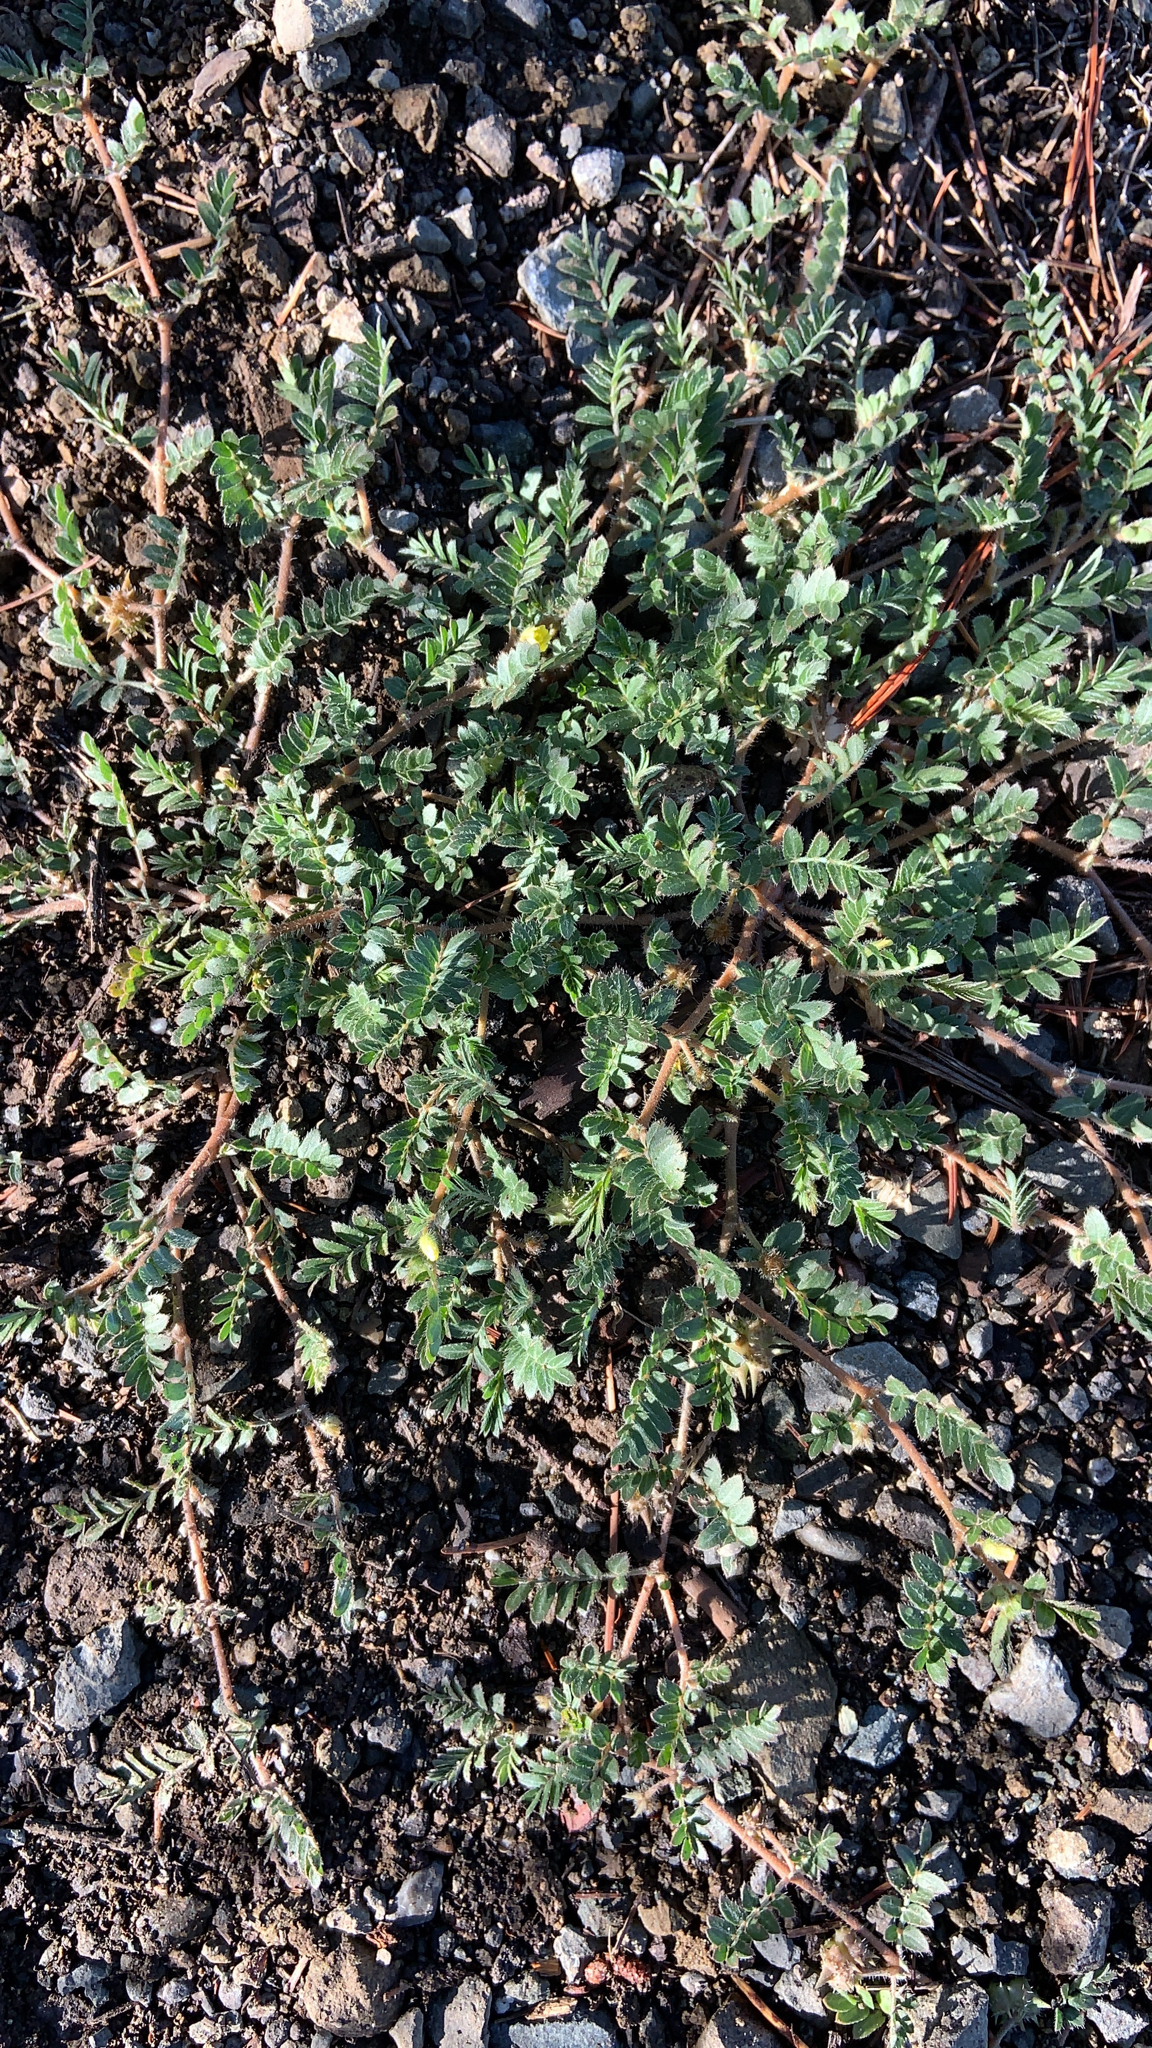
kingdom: Plantae
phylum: Tracheophyta
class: Magnoliopsida
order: Zygophyllales
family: Zygophyllaceae
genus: Tribulus
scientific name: Tribulus terrestris
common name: Puncturevine
